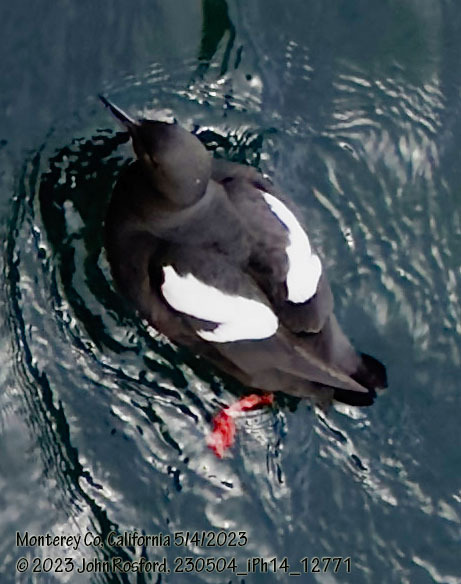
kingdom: Animalia
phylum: Chordata
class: Aves
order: Charadriiformes
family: Alcidae
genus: Cepphus
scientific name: Cepphus columba
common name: Pigeon guillemot
